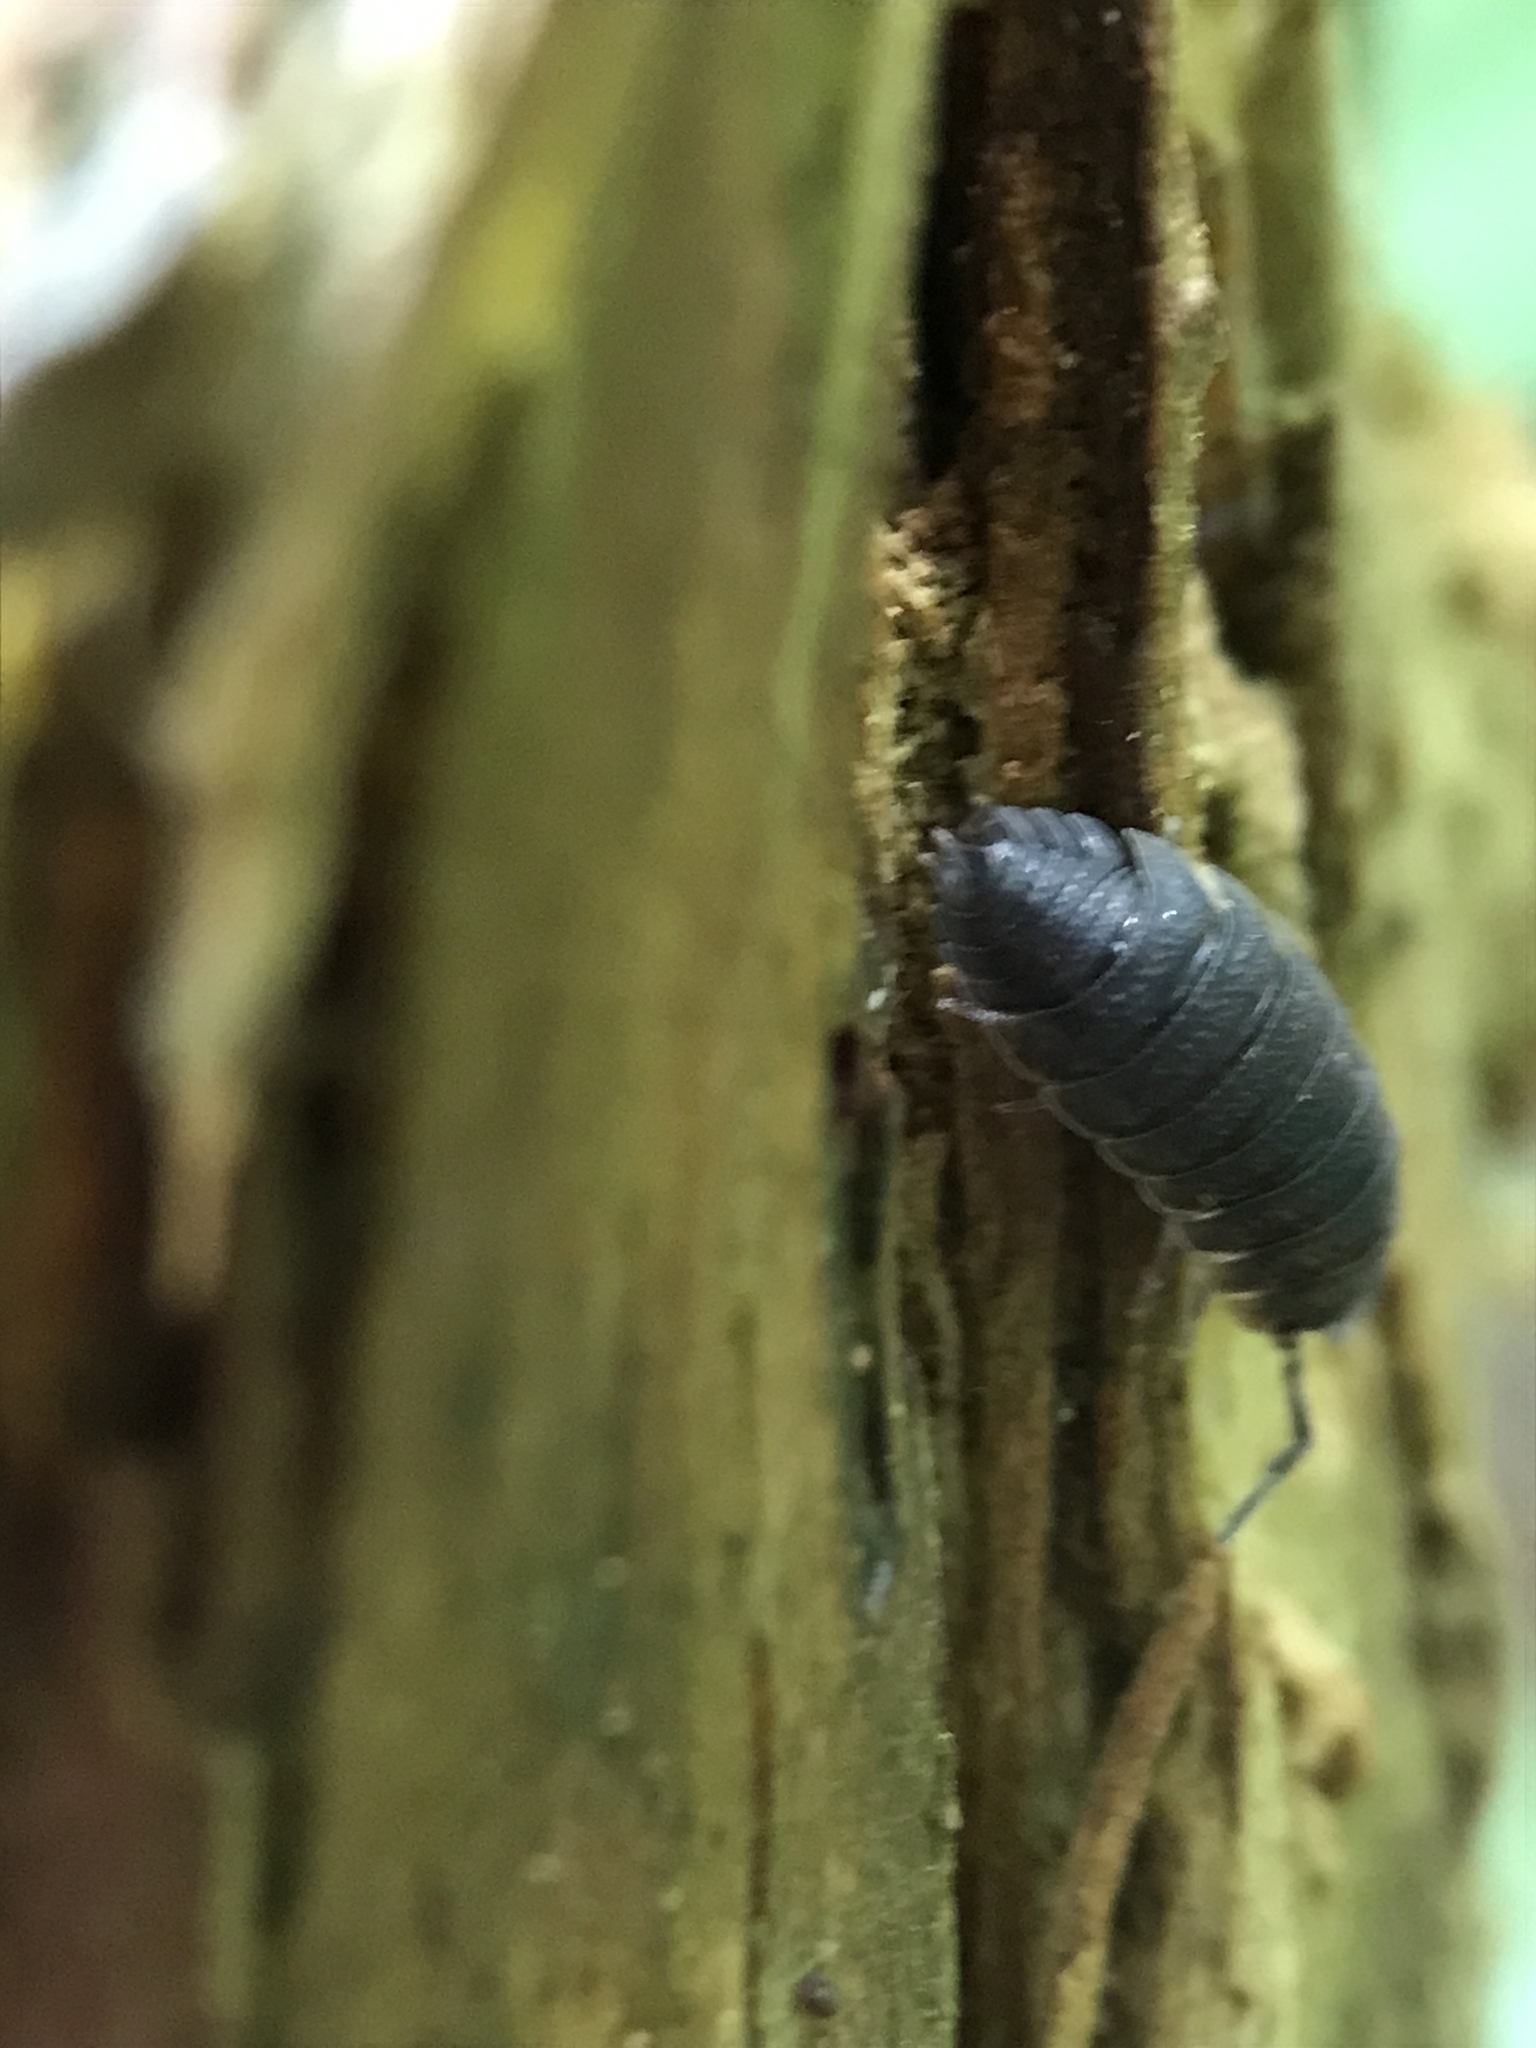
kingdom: Animalia
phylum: Arthropoda
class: Malacostraca
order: Isopoda
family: Porcellionidae
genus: Porcellio
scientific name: Porcellio scaber
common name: Common rough woodlouse
